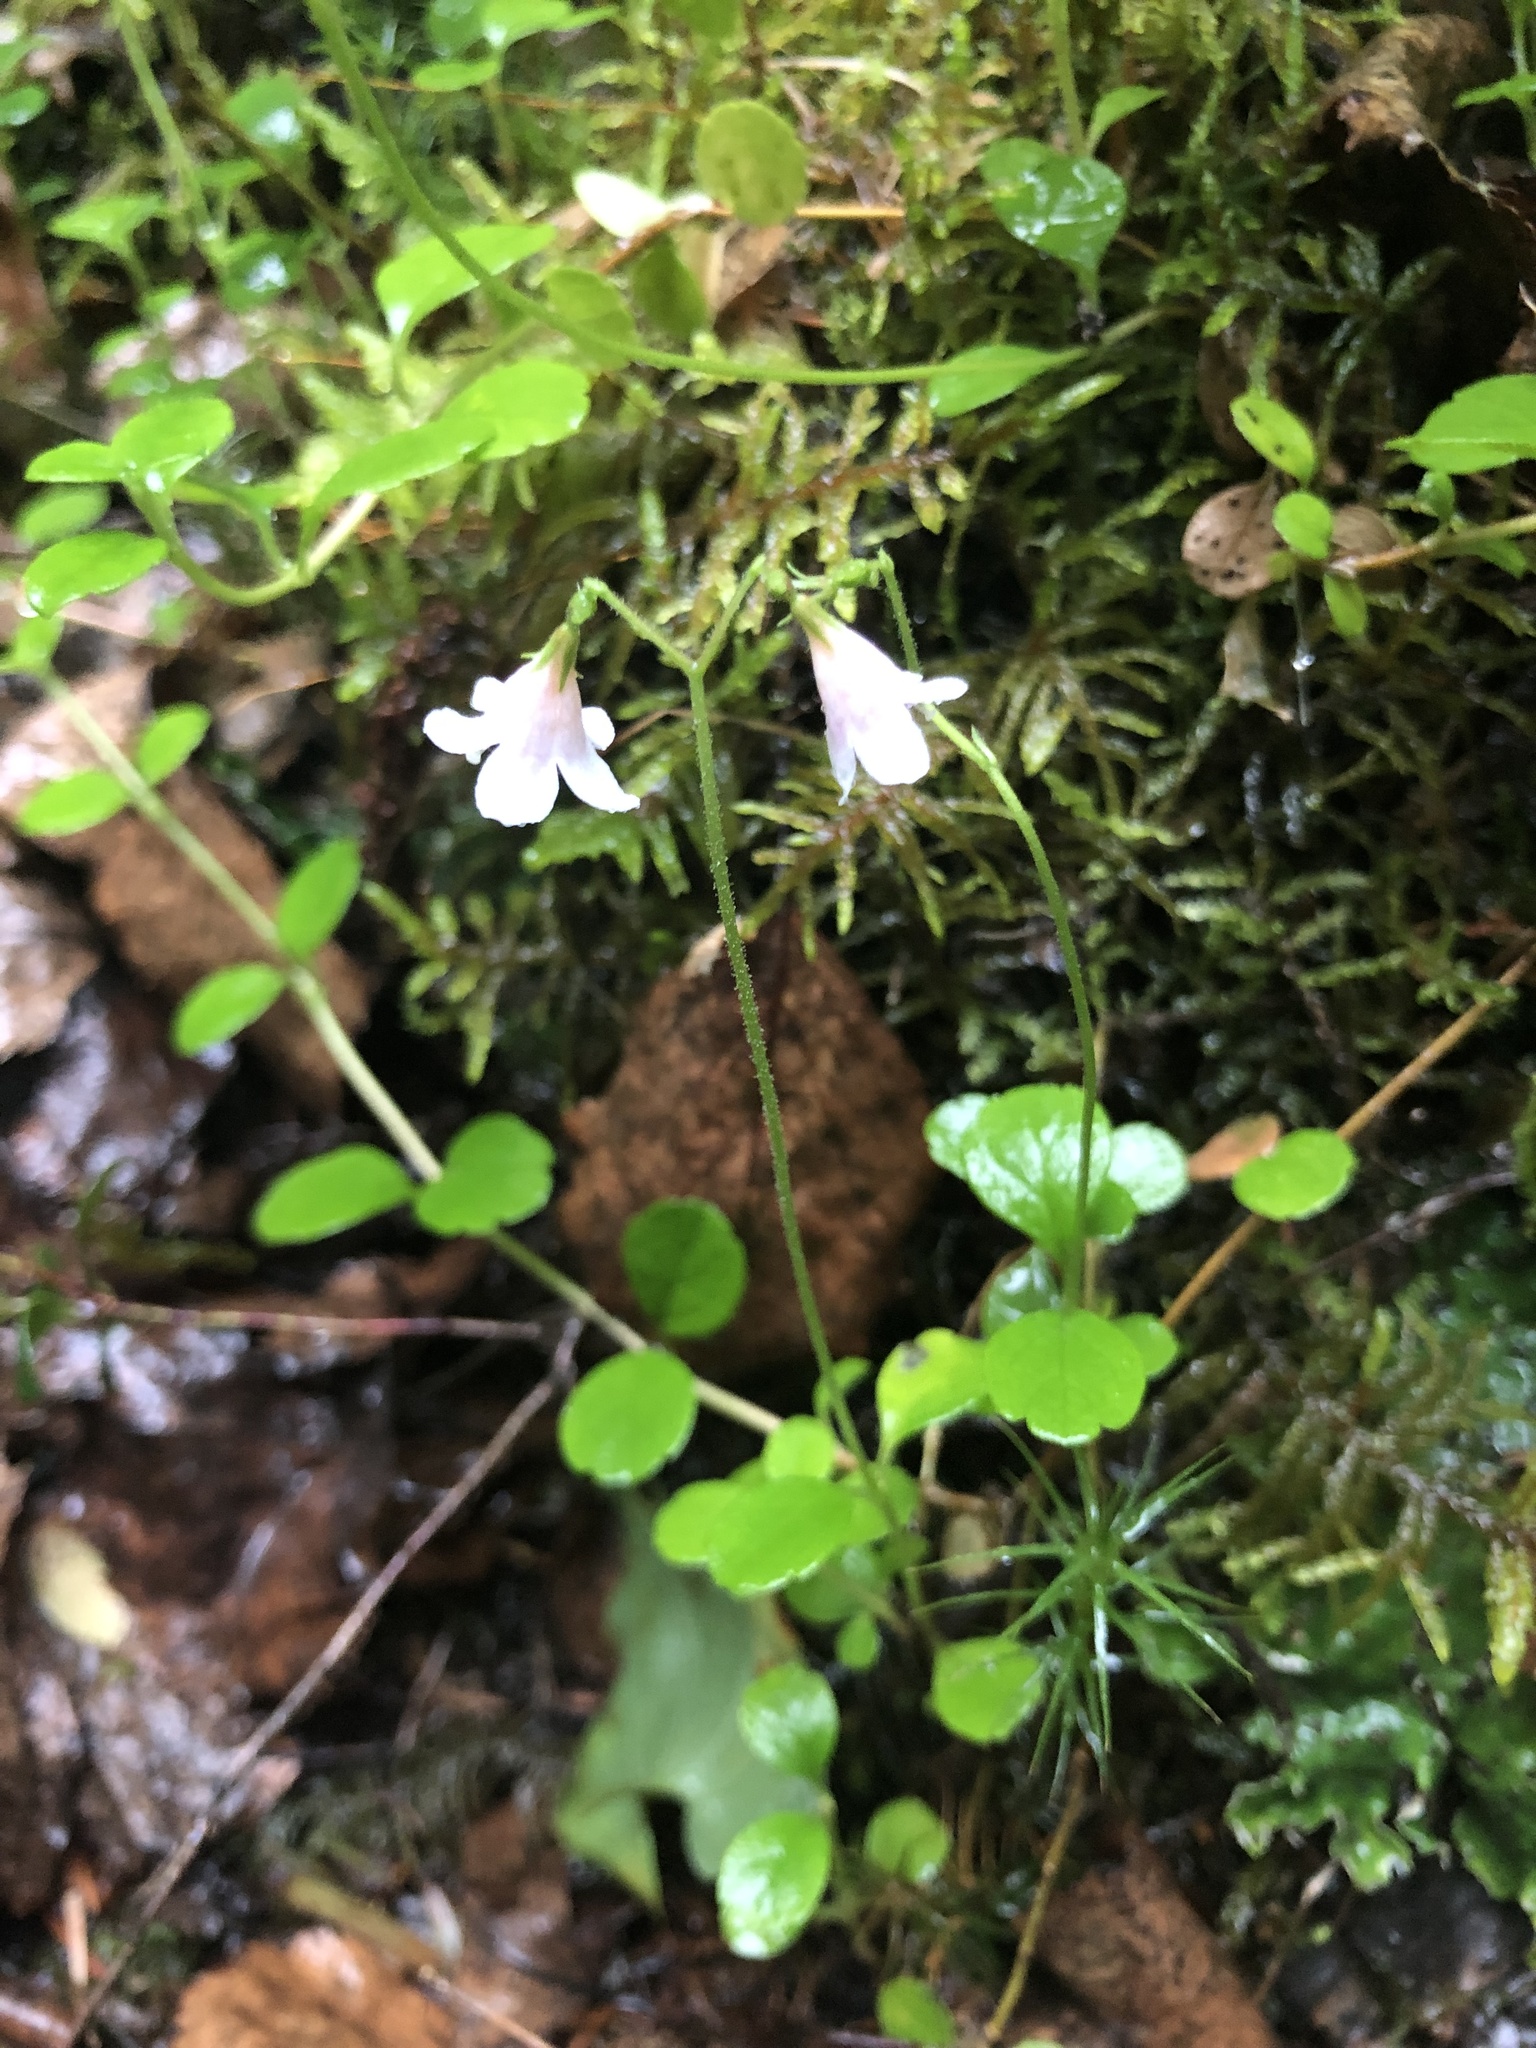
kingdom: Plantae
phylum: Tracheophyta
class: Magnoliopsida
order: Dipsacales
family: Caprifoliaceae
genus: Linnaea
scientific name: Linnaea borealis
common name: Twinflower
